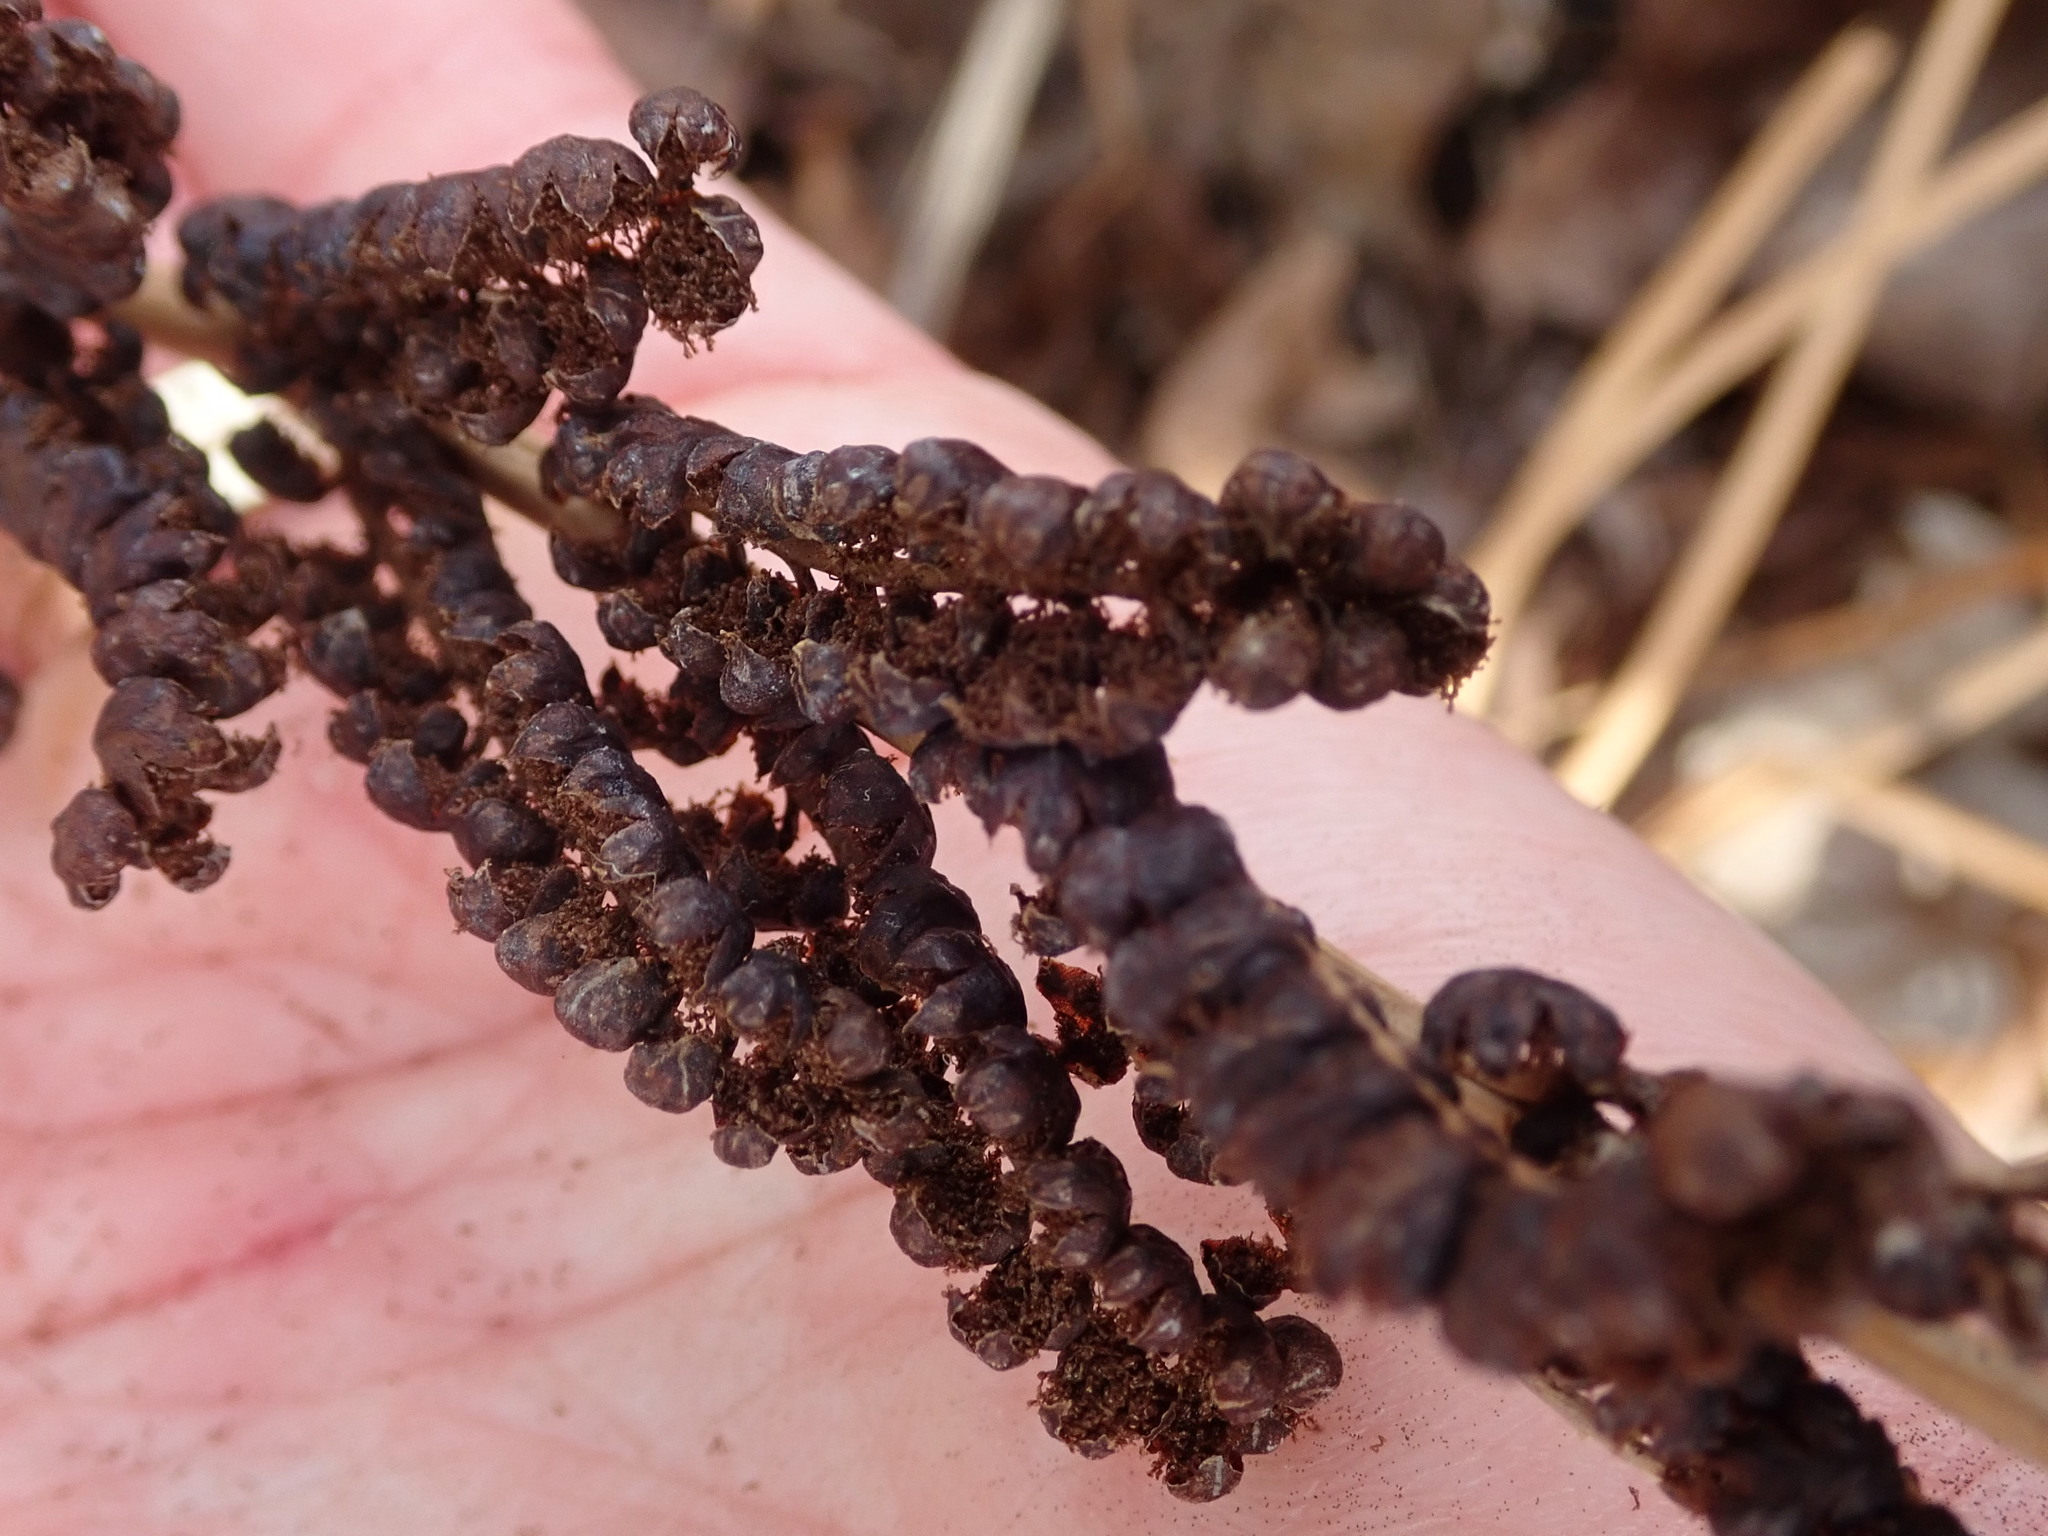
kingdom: Plantae
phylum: Tracheophyta
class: Polypodiopsida
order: Polypodiales
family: Onocleaceae
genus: Onoclea
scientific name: Onoclea sensibilis
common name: Sensitive fern
